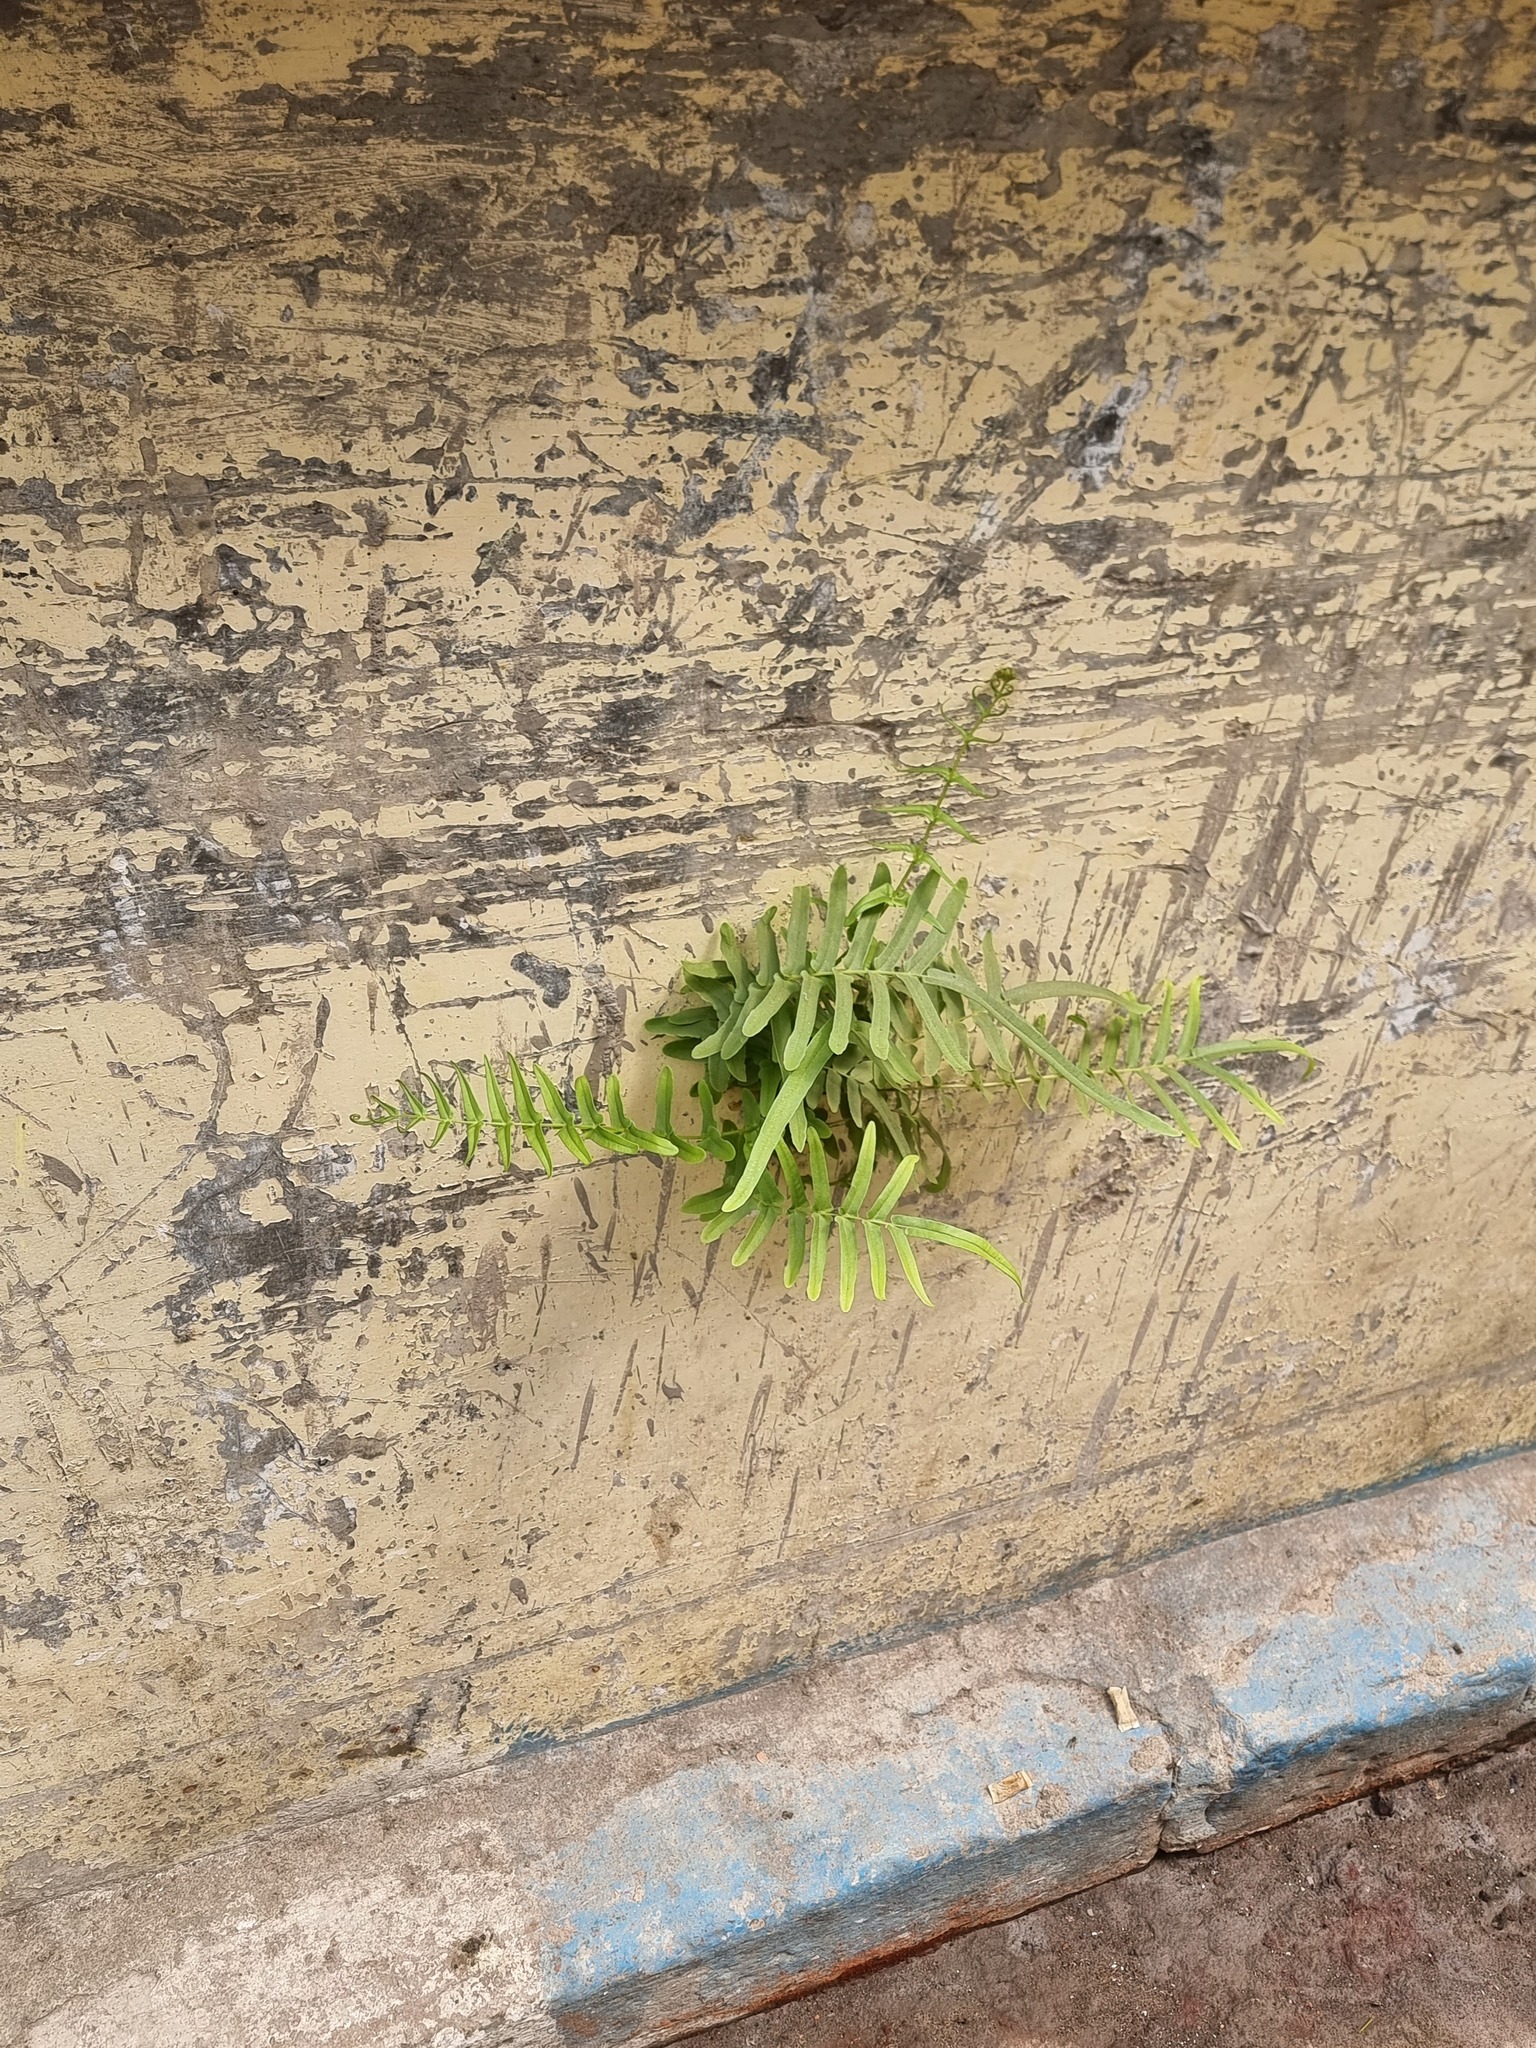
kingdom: Plantae
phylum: Tracheophyta
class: Polypodiopsida
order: Polypodiales
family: Pteridaceae
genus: Pteris
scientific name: Pteris vittata
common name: Ladder brake
